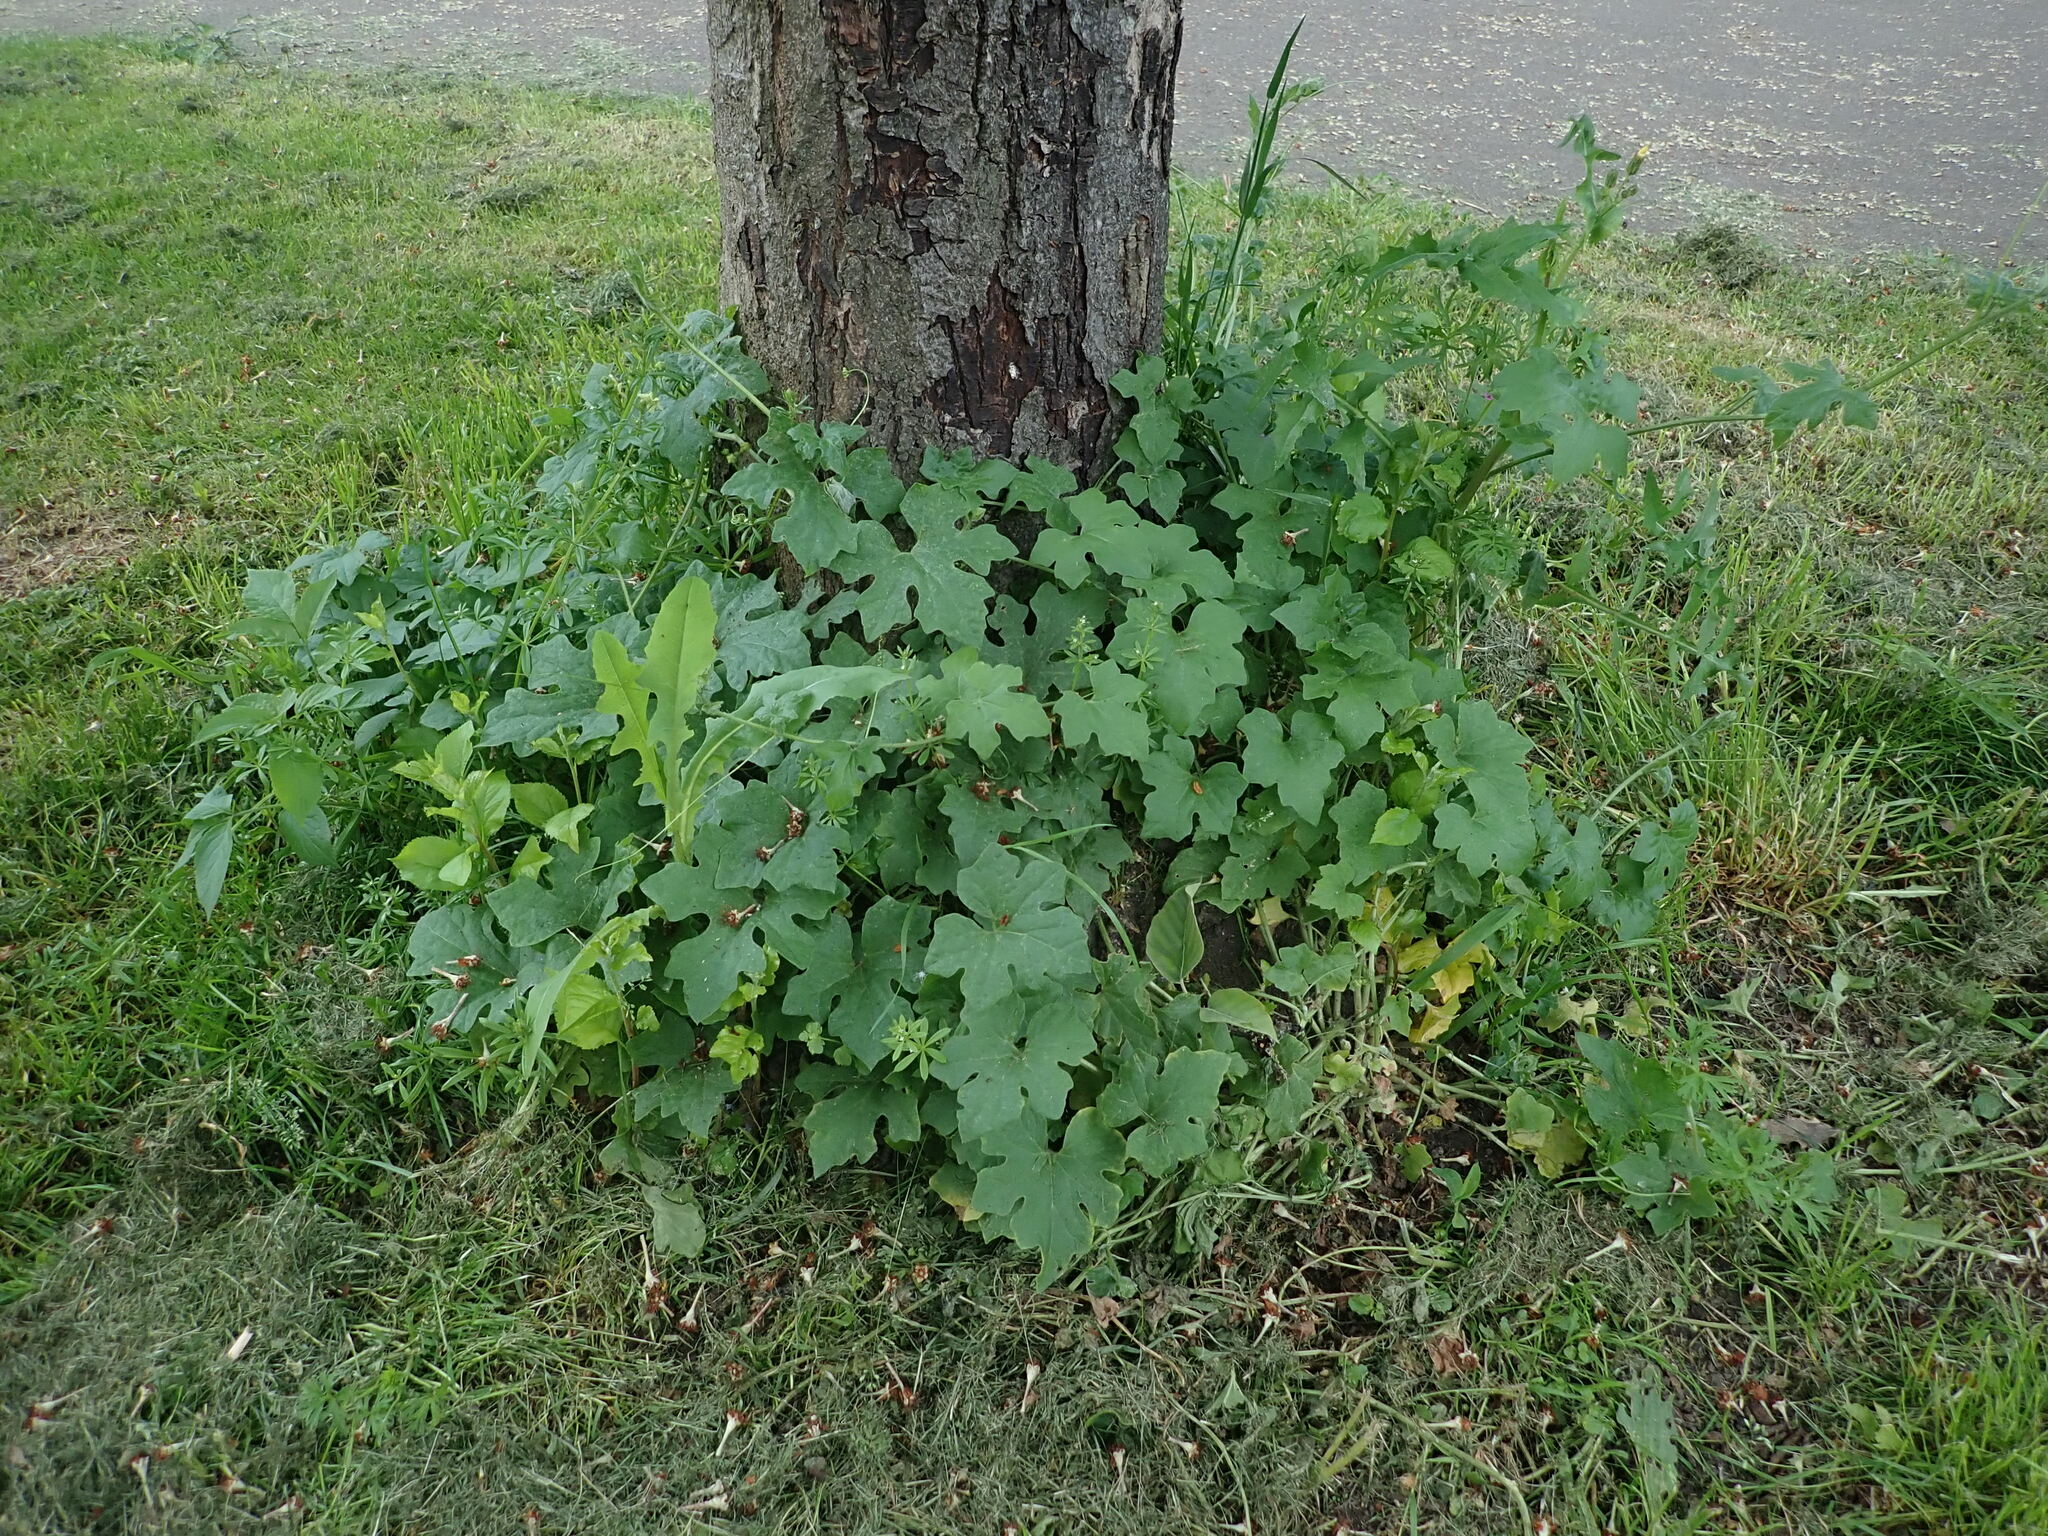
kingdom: Plantae
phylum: Tracheophyta
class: Magnoliopsida
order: Cucurbitales
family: Cucurbitaceae
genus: Bryonia
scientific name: Bryonia cretica
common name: Cretan bryony
